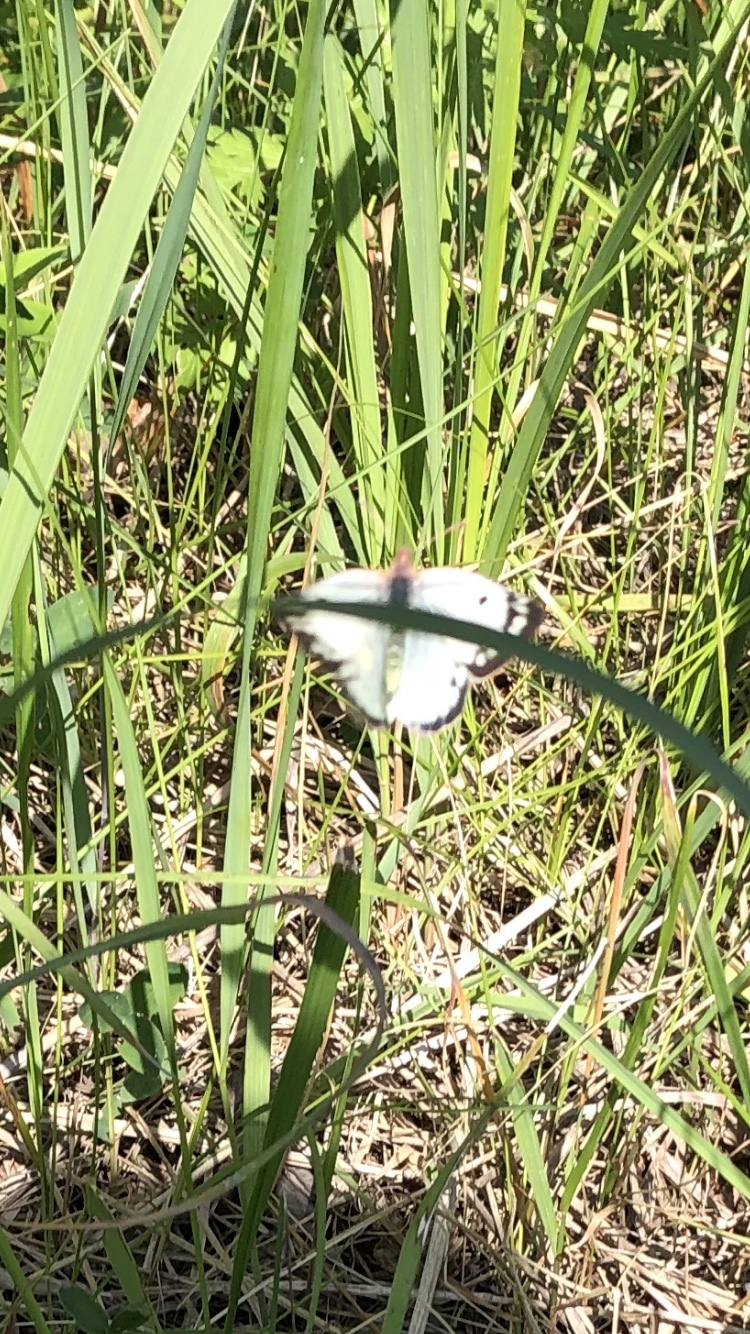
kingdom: Animalia
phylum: Arthropoda
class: Insecta
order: Lepidoptera
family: Pieridae
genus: Colias
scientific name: Colias hyale
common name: Pale clouded yellow
